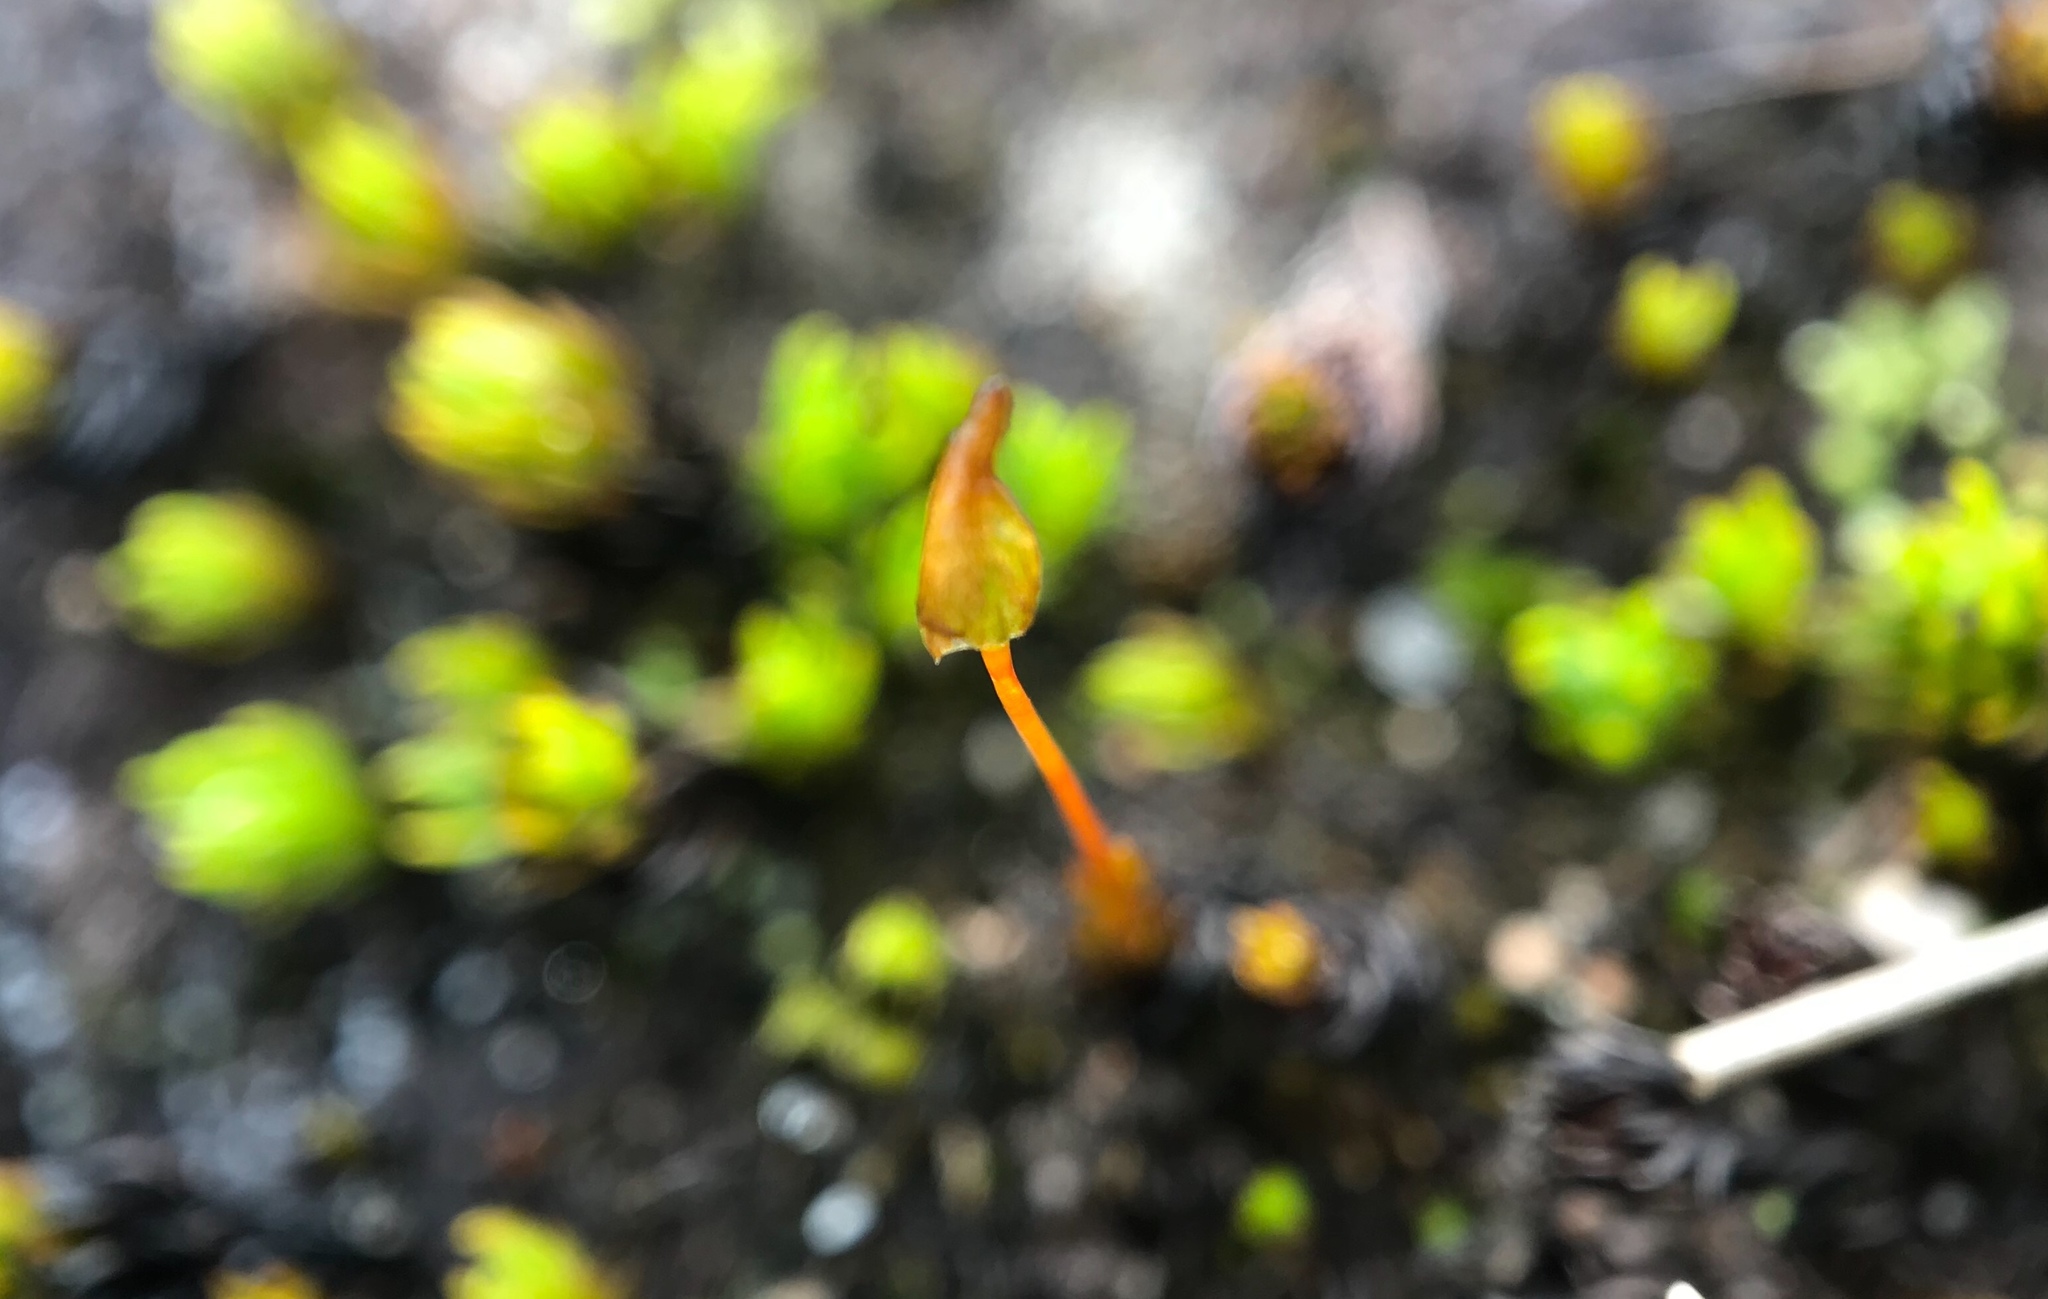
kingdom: Plantae
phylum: Bryophyta
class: Polytrichopsida
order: Polytrichales
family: Polytrichaceae
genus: Polytrichastrum
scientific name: Polytrichastrum sexangulare
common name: Northern haircap
